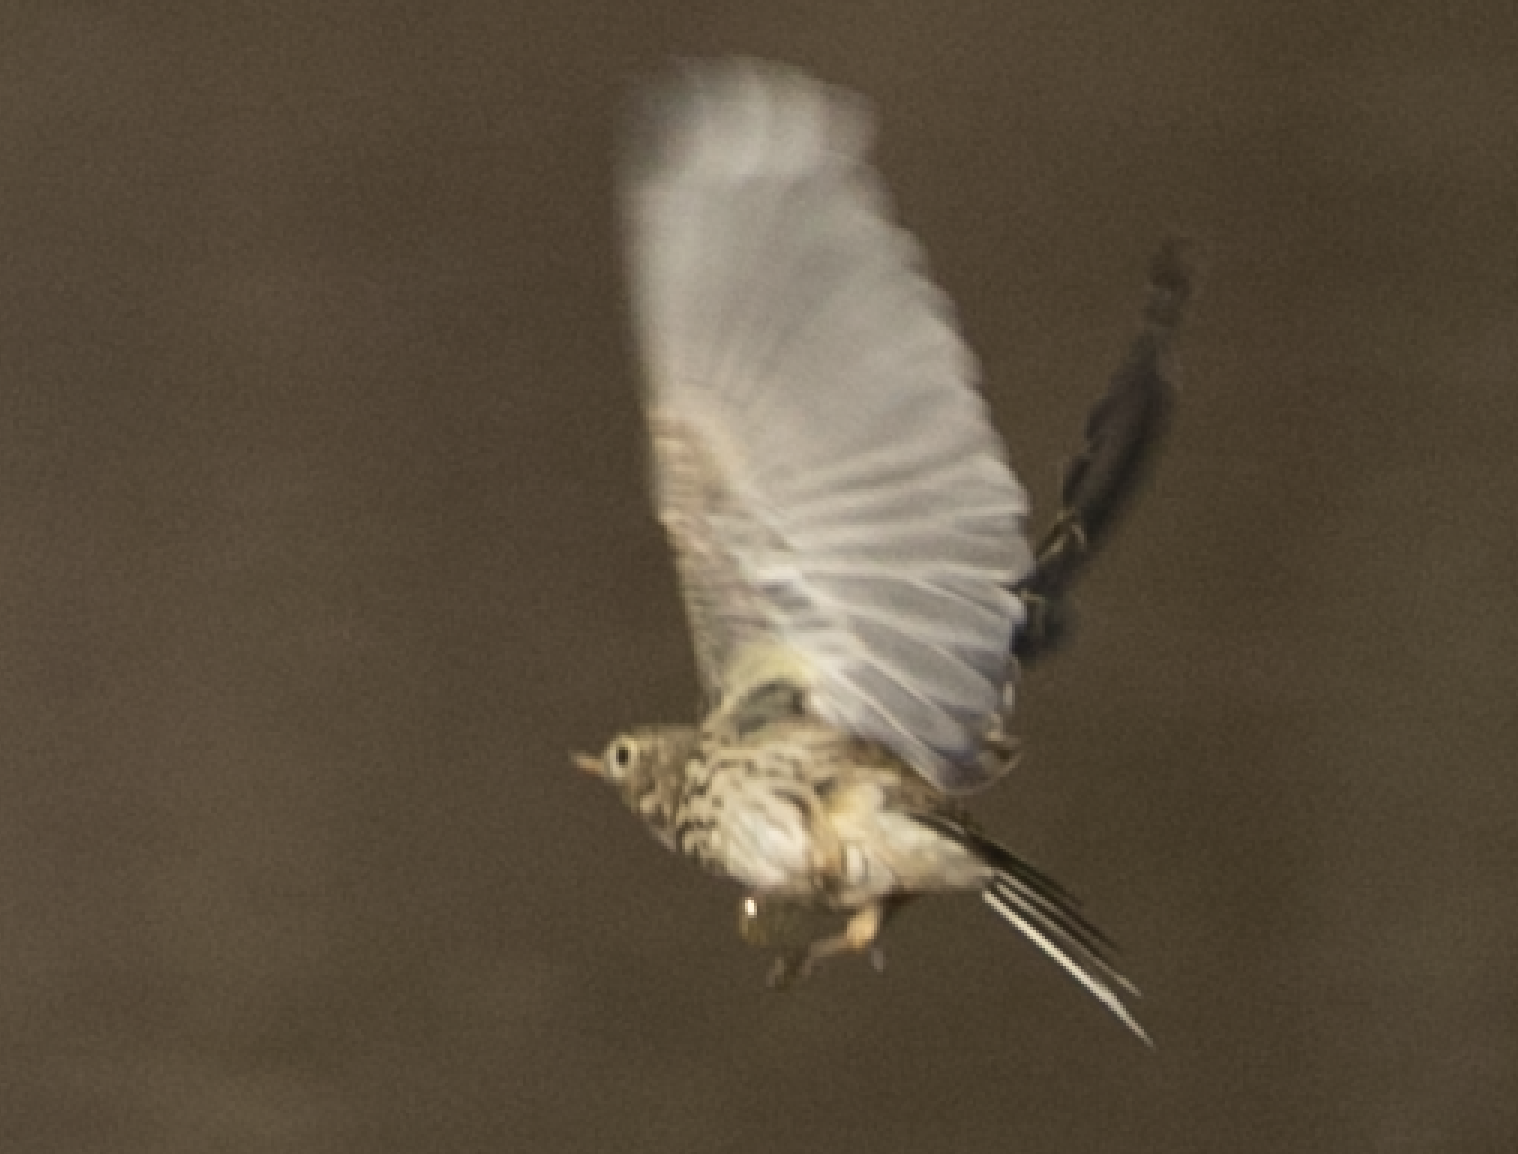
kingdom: Animalia
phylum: Chordata
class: Aves
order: Passeriformes
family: Motacillidae
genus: Anthus
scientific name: Anthus pratensis
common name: Meadow pipit
